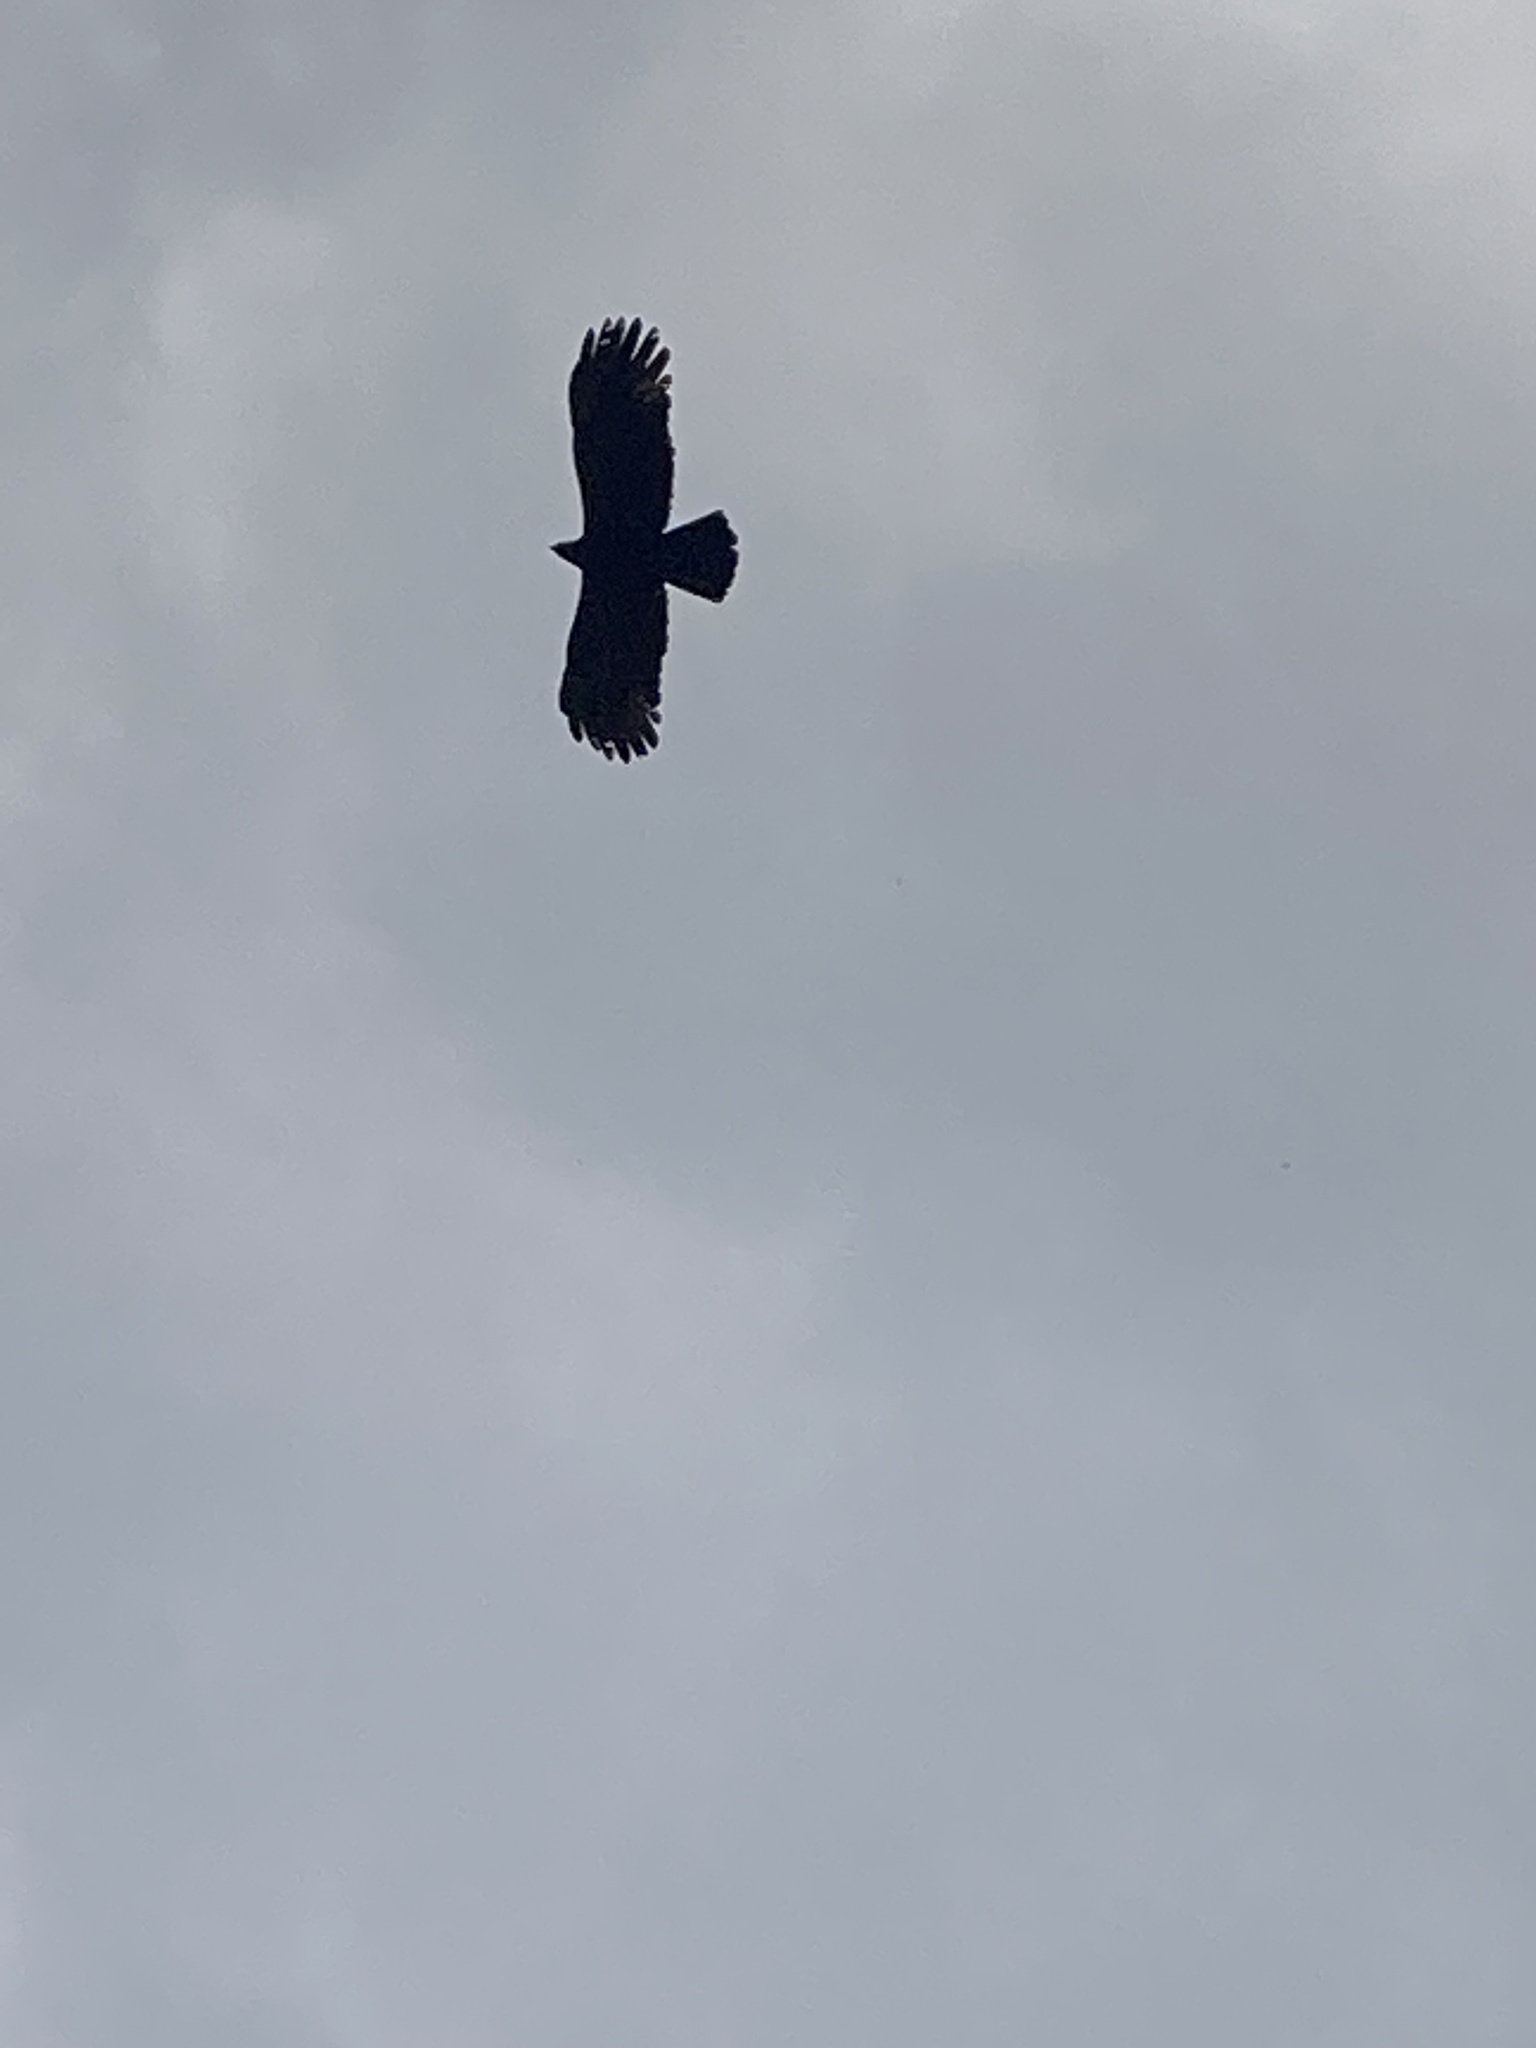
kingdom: Animalia
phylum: Chordata
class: Aves
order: Accipitriformes
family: Accipitridae
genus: Ictinaetus
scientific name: Ictinaetus malayensis
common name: Black eagle
